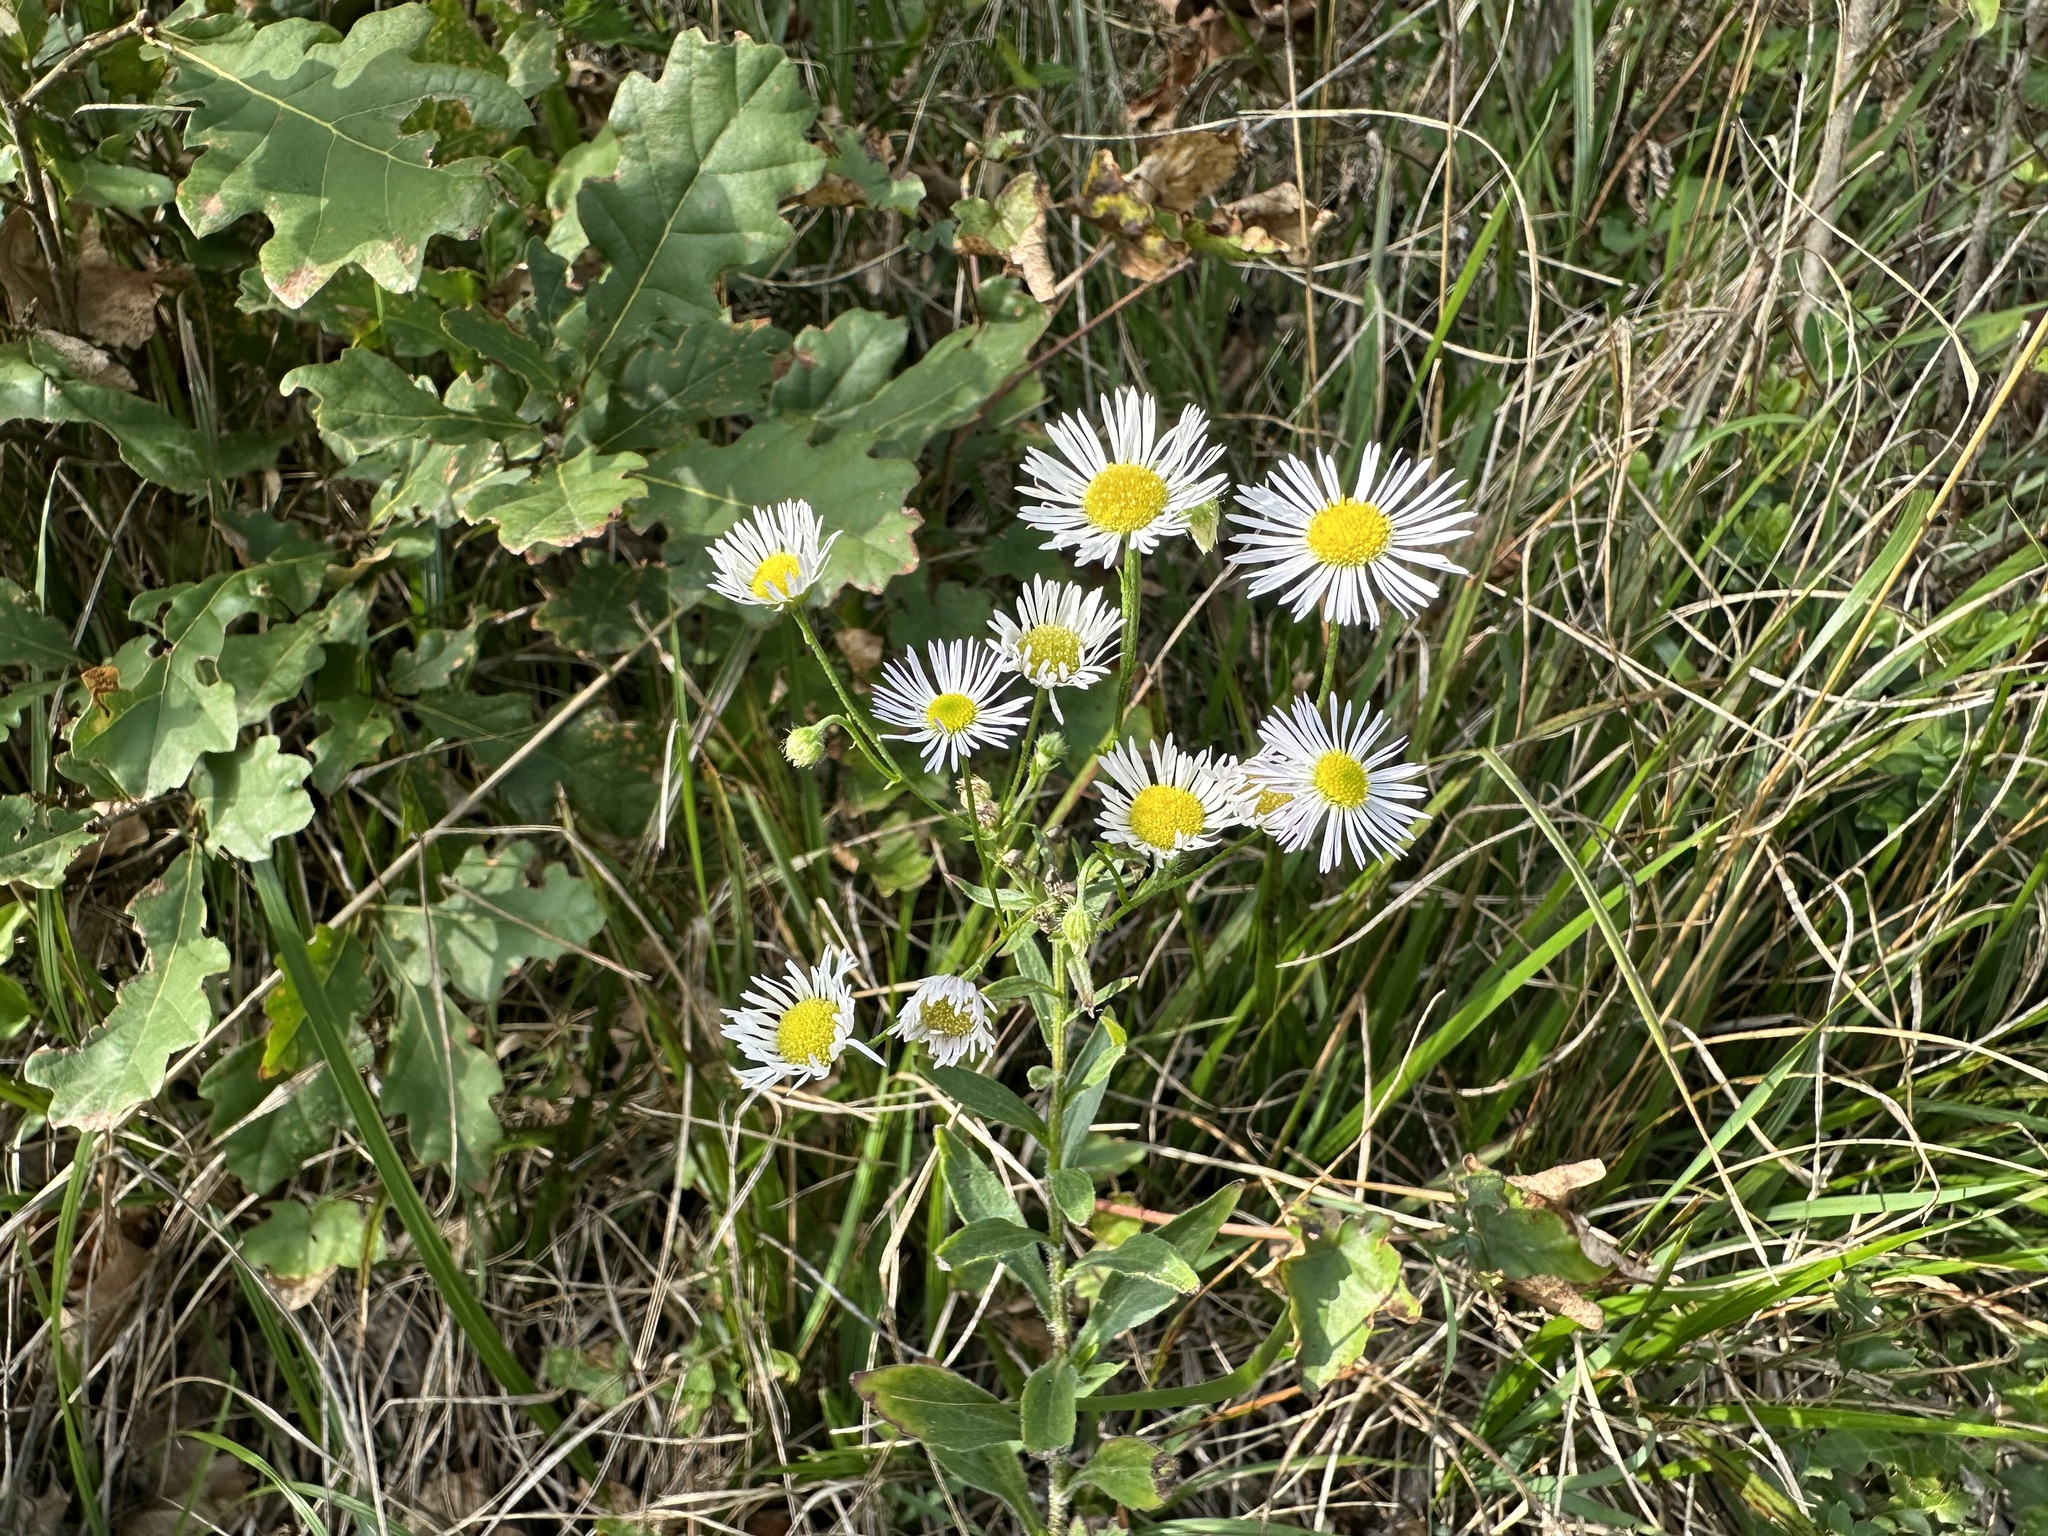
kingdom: Plantae
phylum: Tracheophyta
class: Magnoliopsida
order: Asterales
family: Asteraceae
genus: Erigeron
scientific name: Erigeron annuus
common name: Tall fleabane
